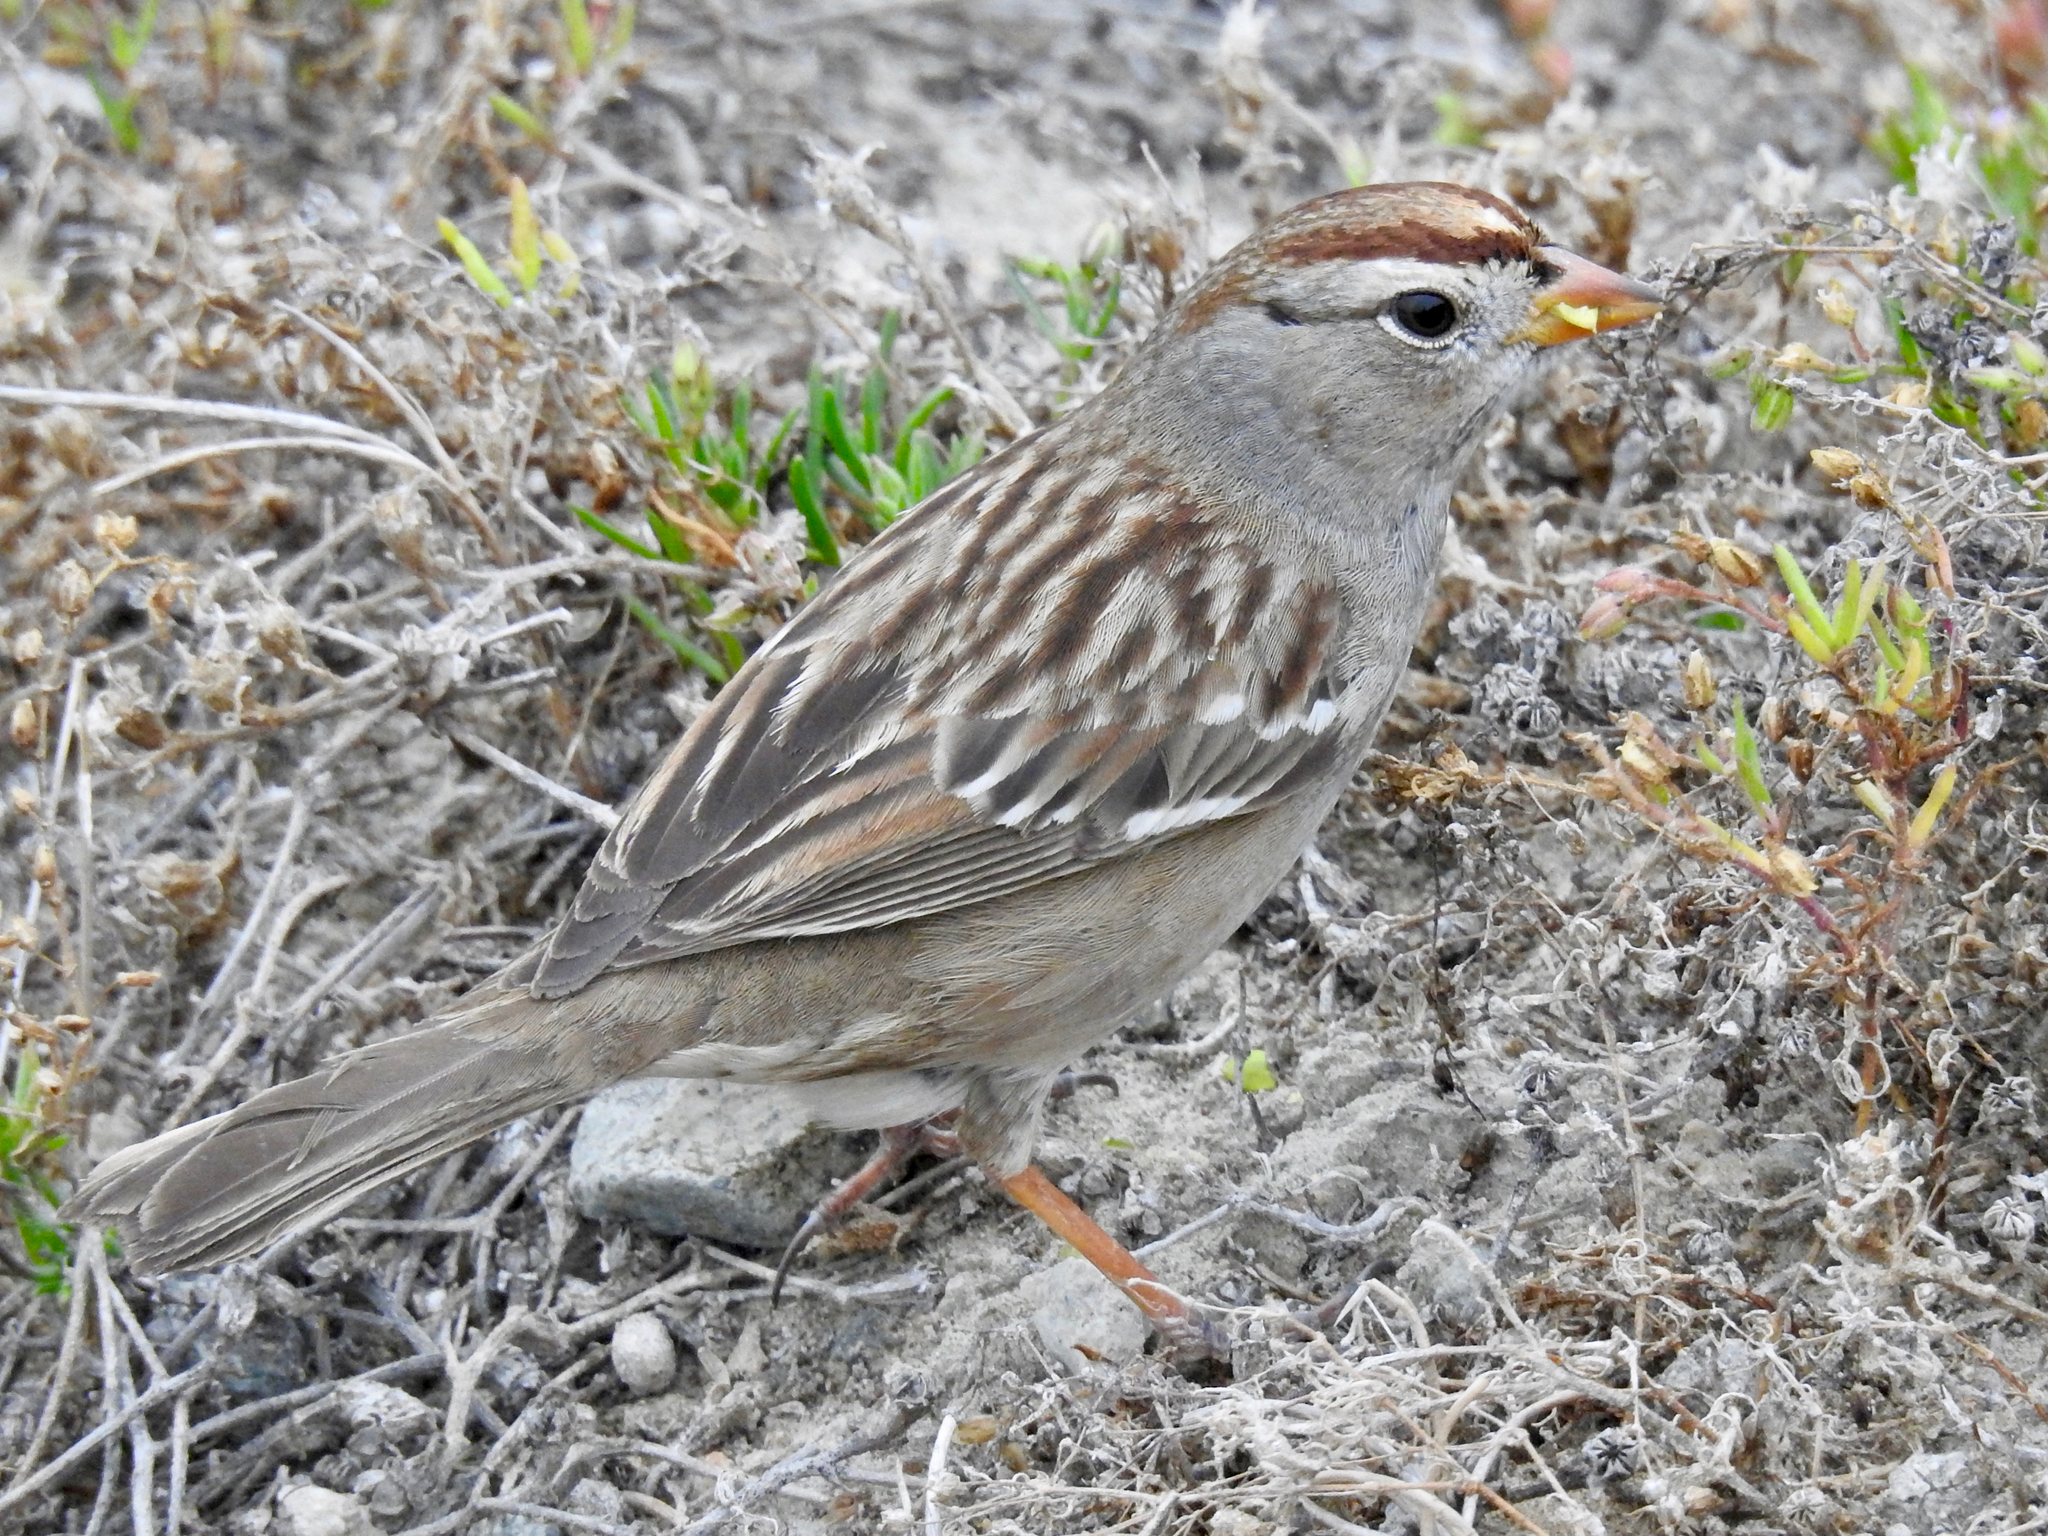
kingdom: Animalia
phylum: Chordata
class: Aves
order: Passeriformes
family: Passerellidae
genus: Zonotrichia
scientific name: Zonotrichia leucophrys
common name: White-crowned sparrow
